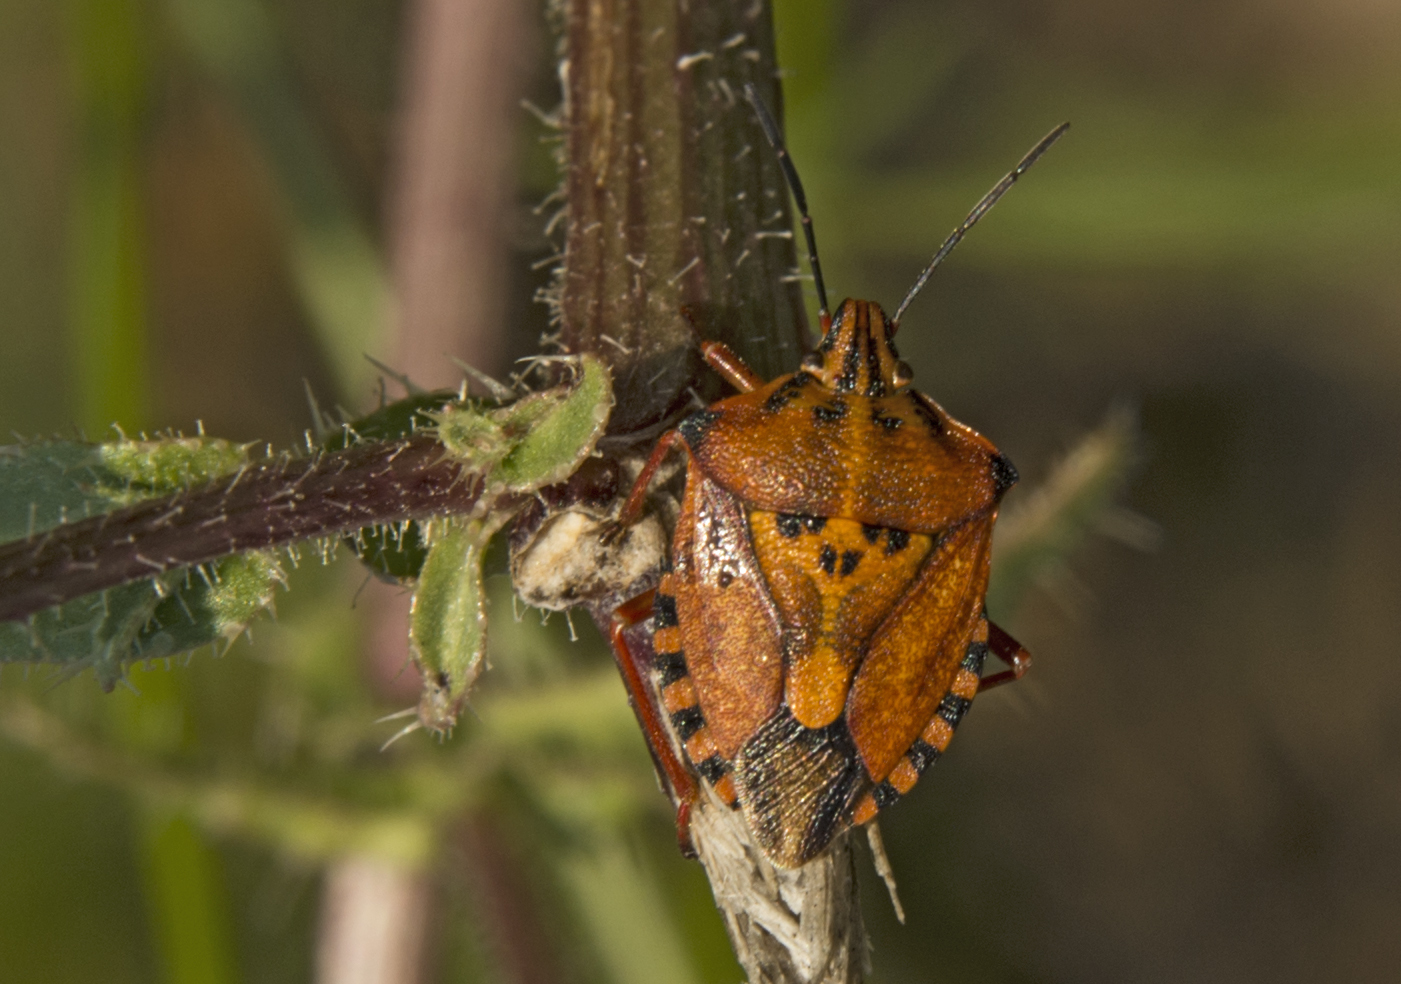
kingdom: Animalia
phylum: Arthropoda
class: Insecta
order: Hemiptera
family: Pentatomidae
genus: Carpocoris
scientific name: Carpocoris mediterraneus
